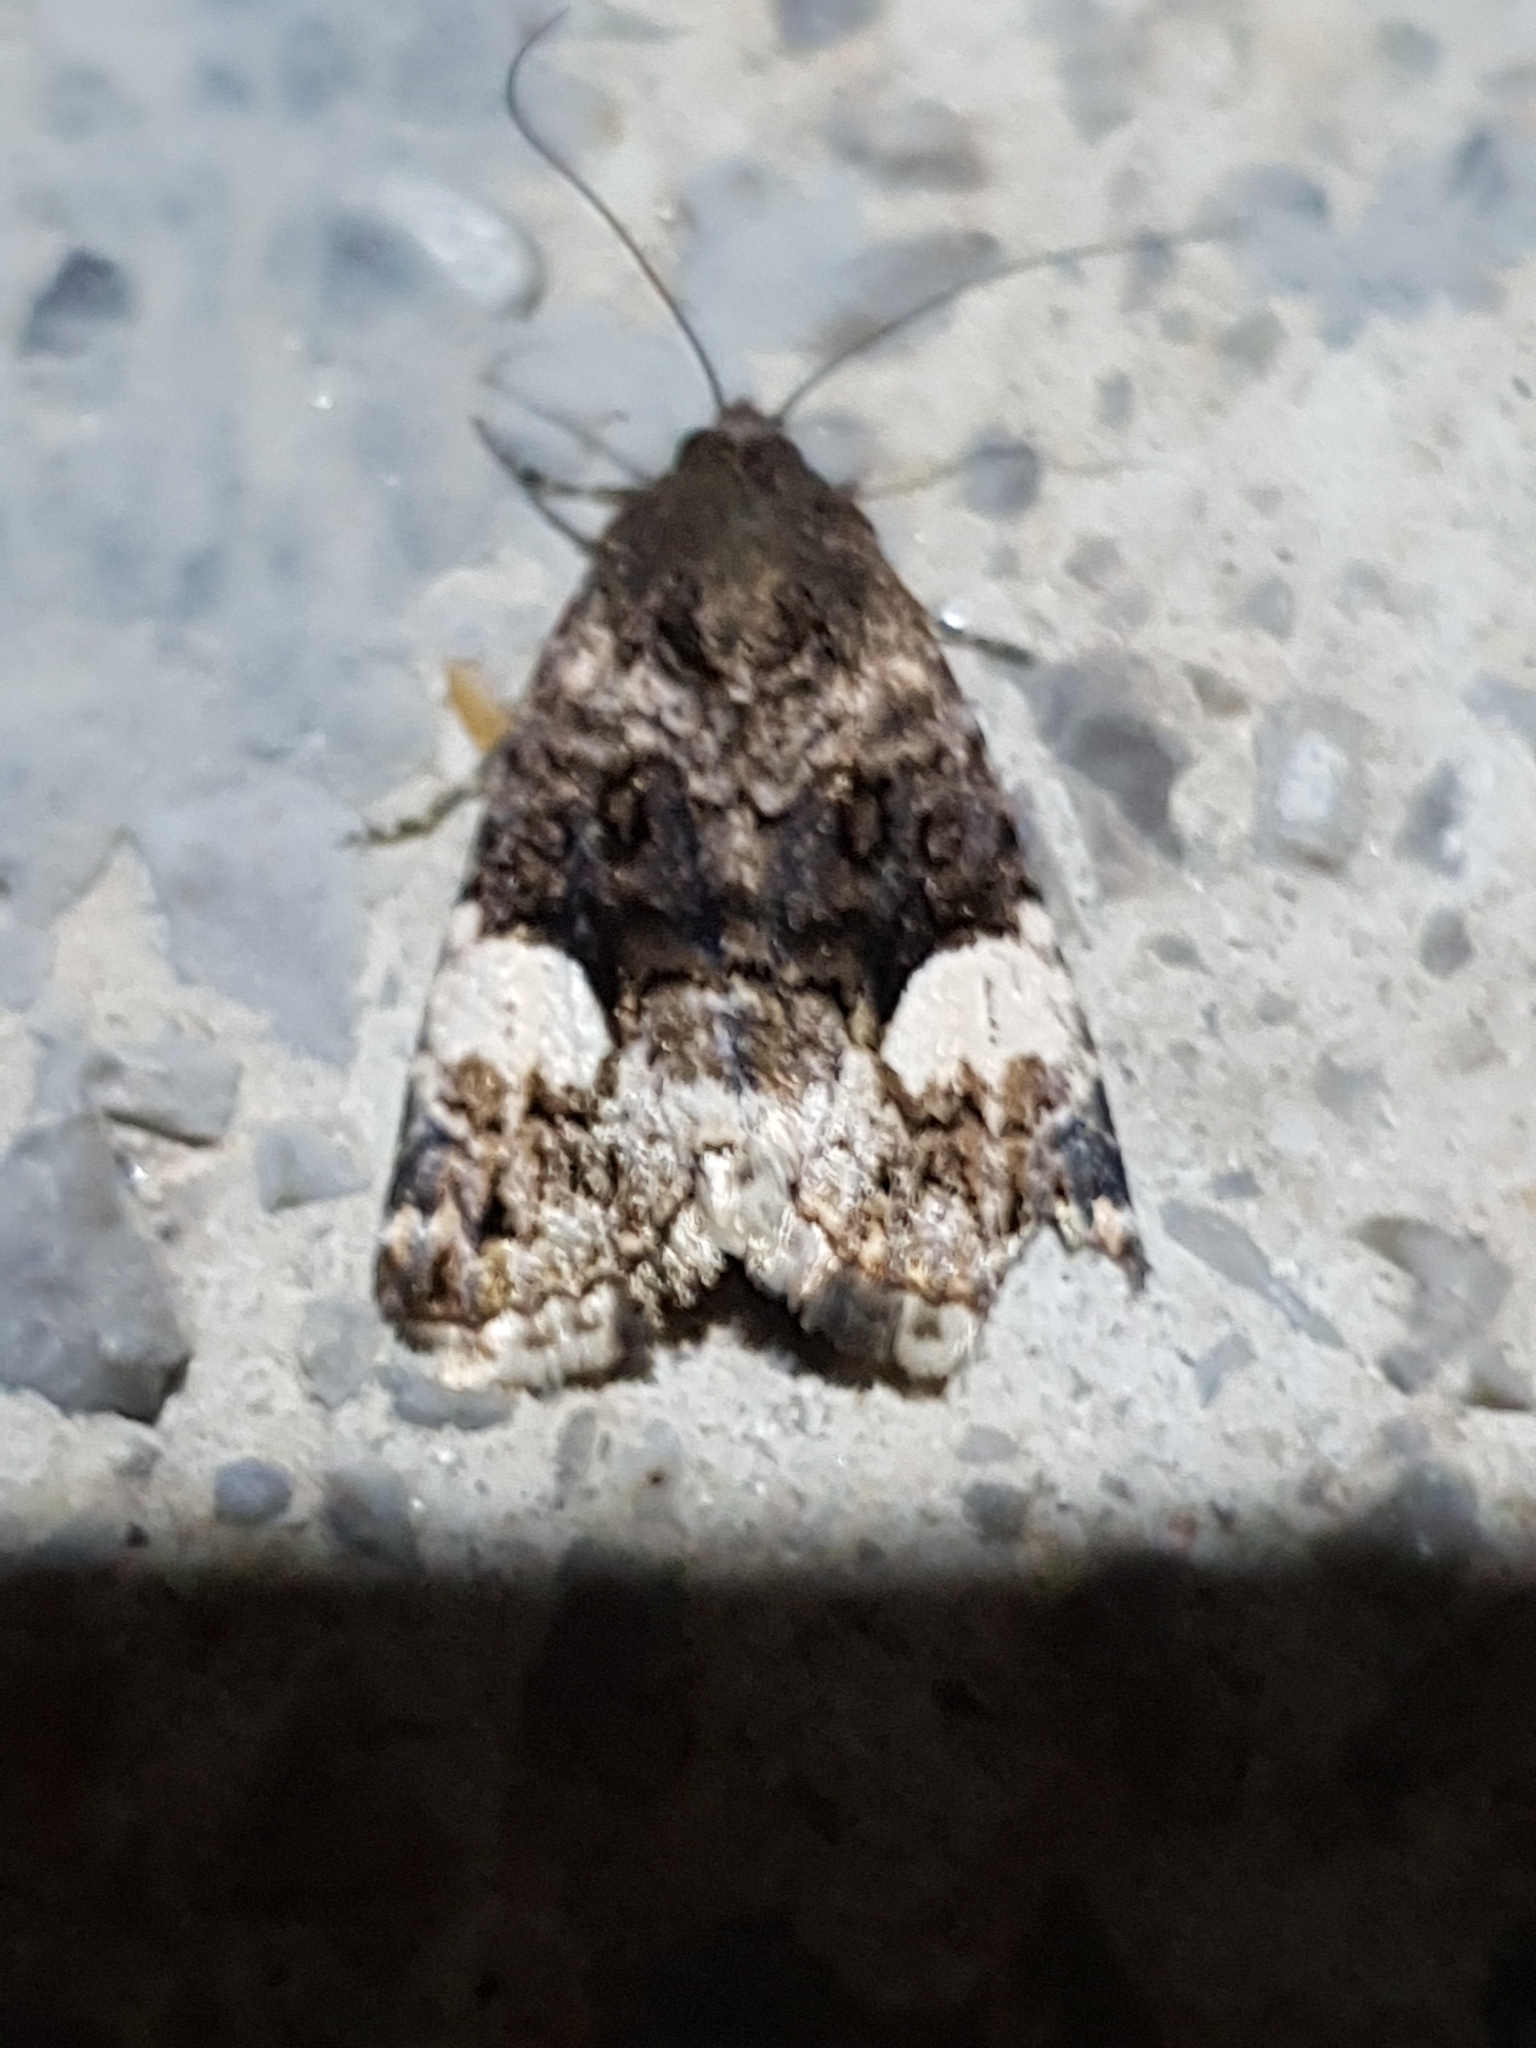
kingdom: Animalia
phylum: Arthropoda
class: Insecta
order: Lepidoptera
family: Erebidae
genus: Tyta
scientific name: Tyta luctuosa
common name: Four-spotted
